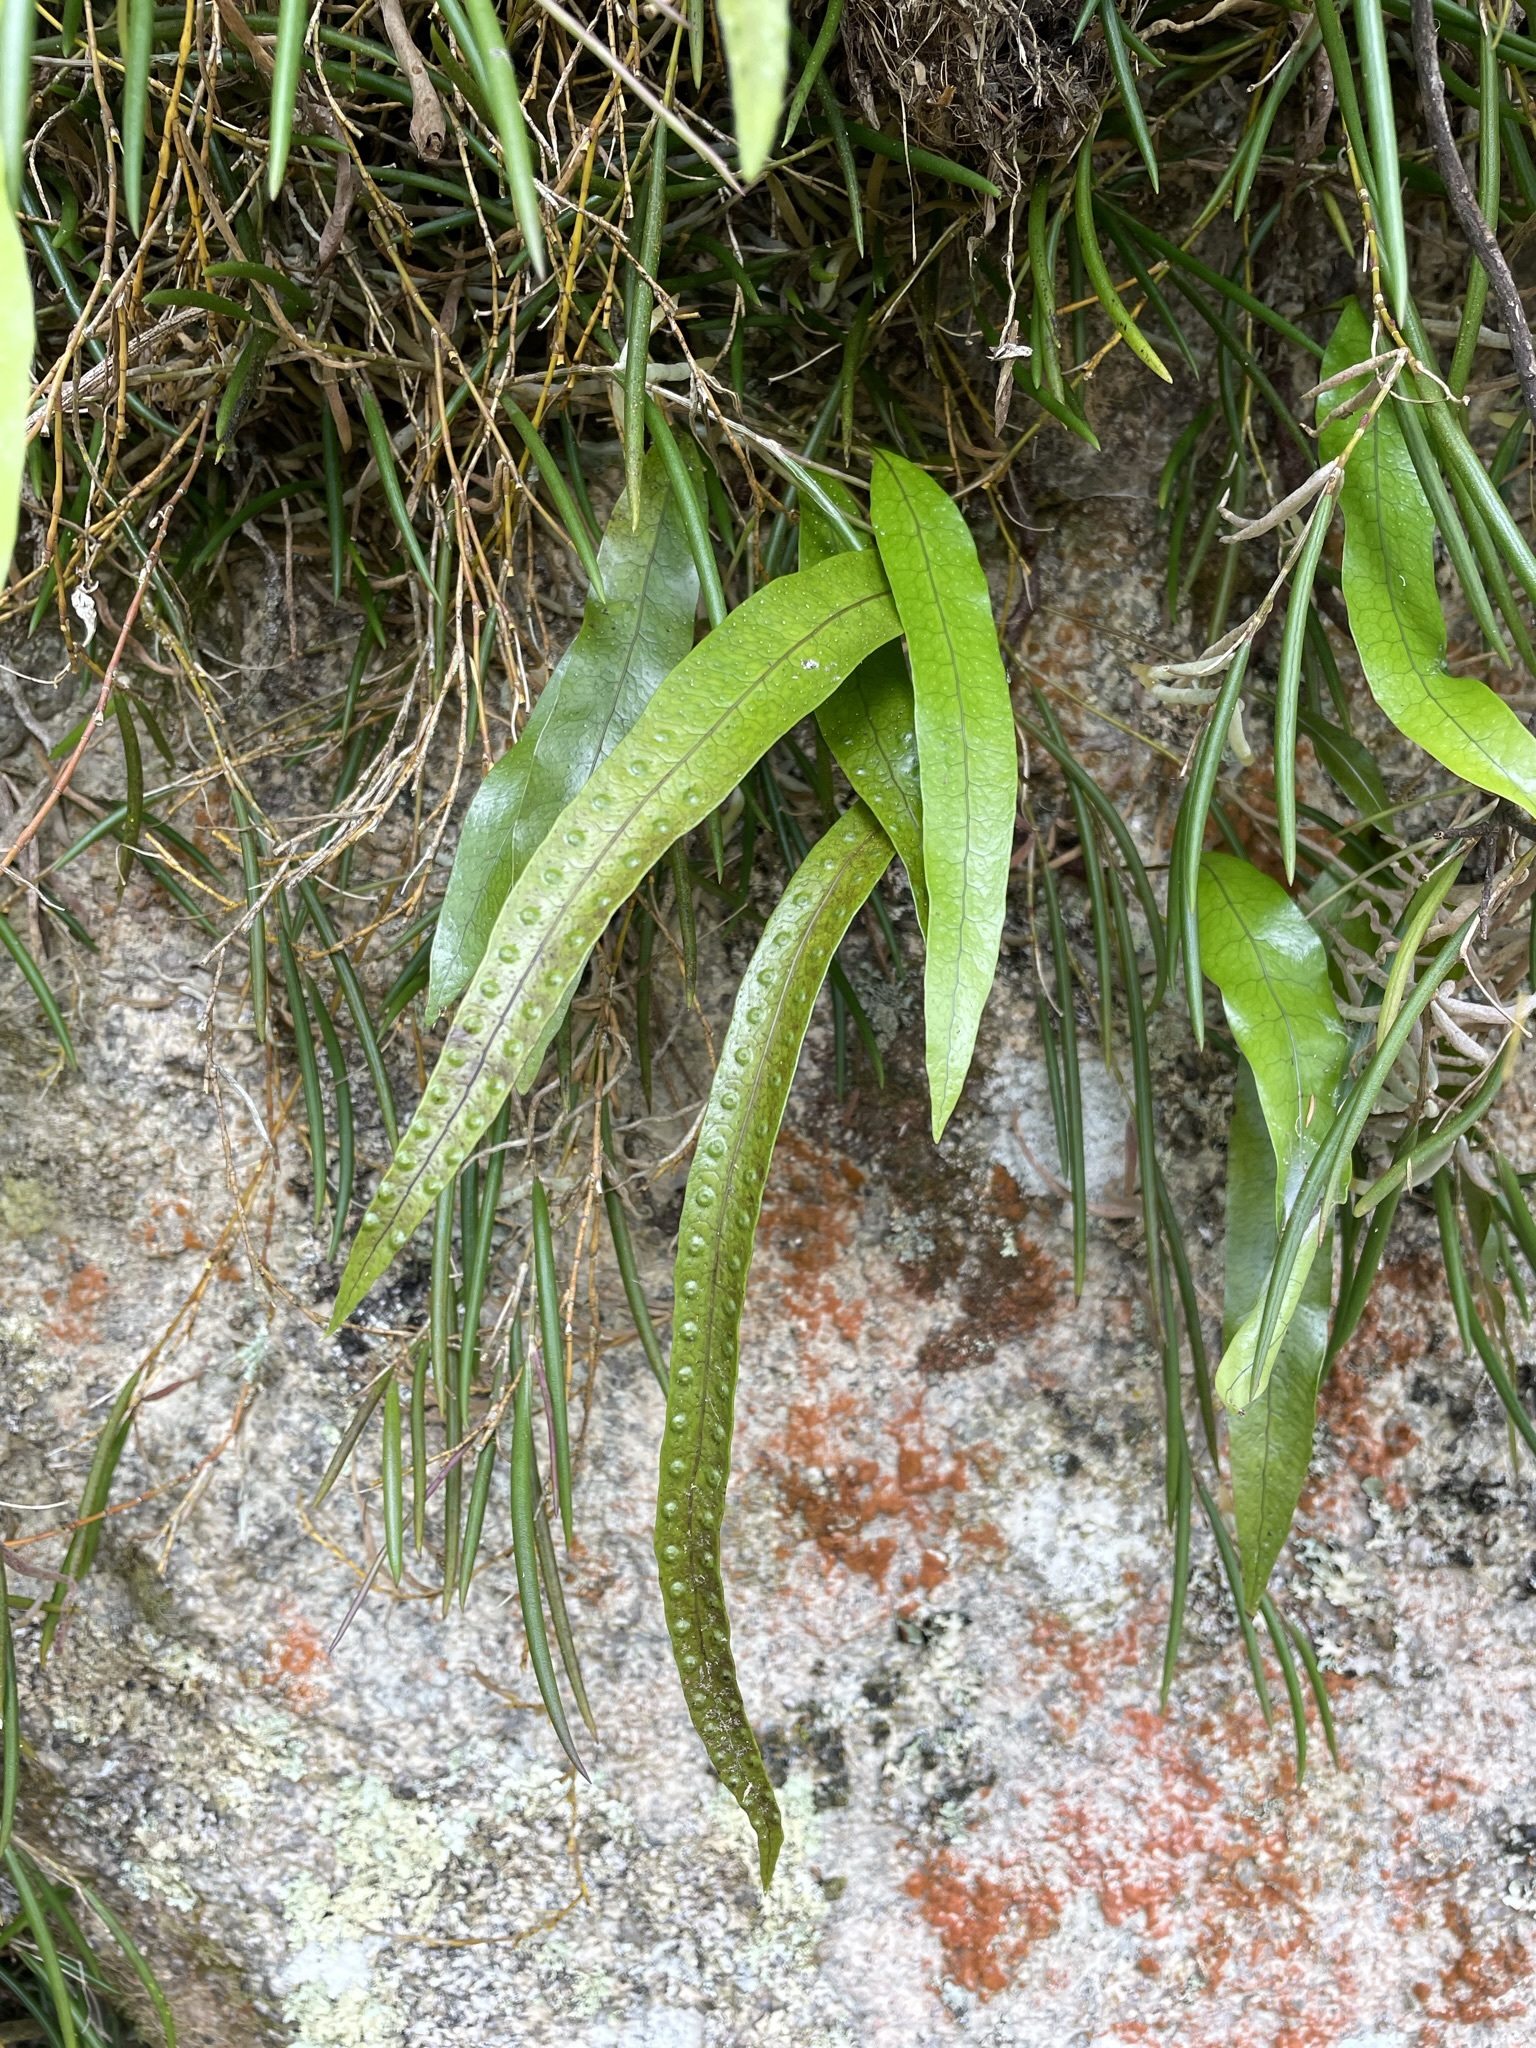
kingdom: Plantae
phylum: Tracheophyta
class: Polypodiopsida
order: Polypodiales
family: Polypodiaceae
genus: Lecanopteris
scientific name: Lecanopteris pustulata
